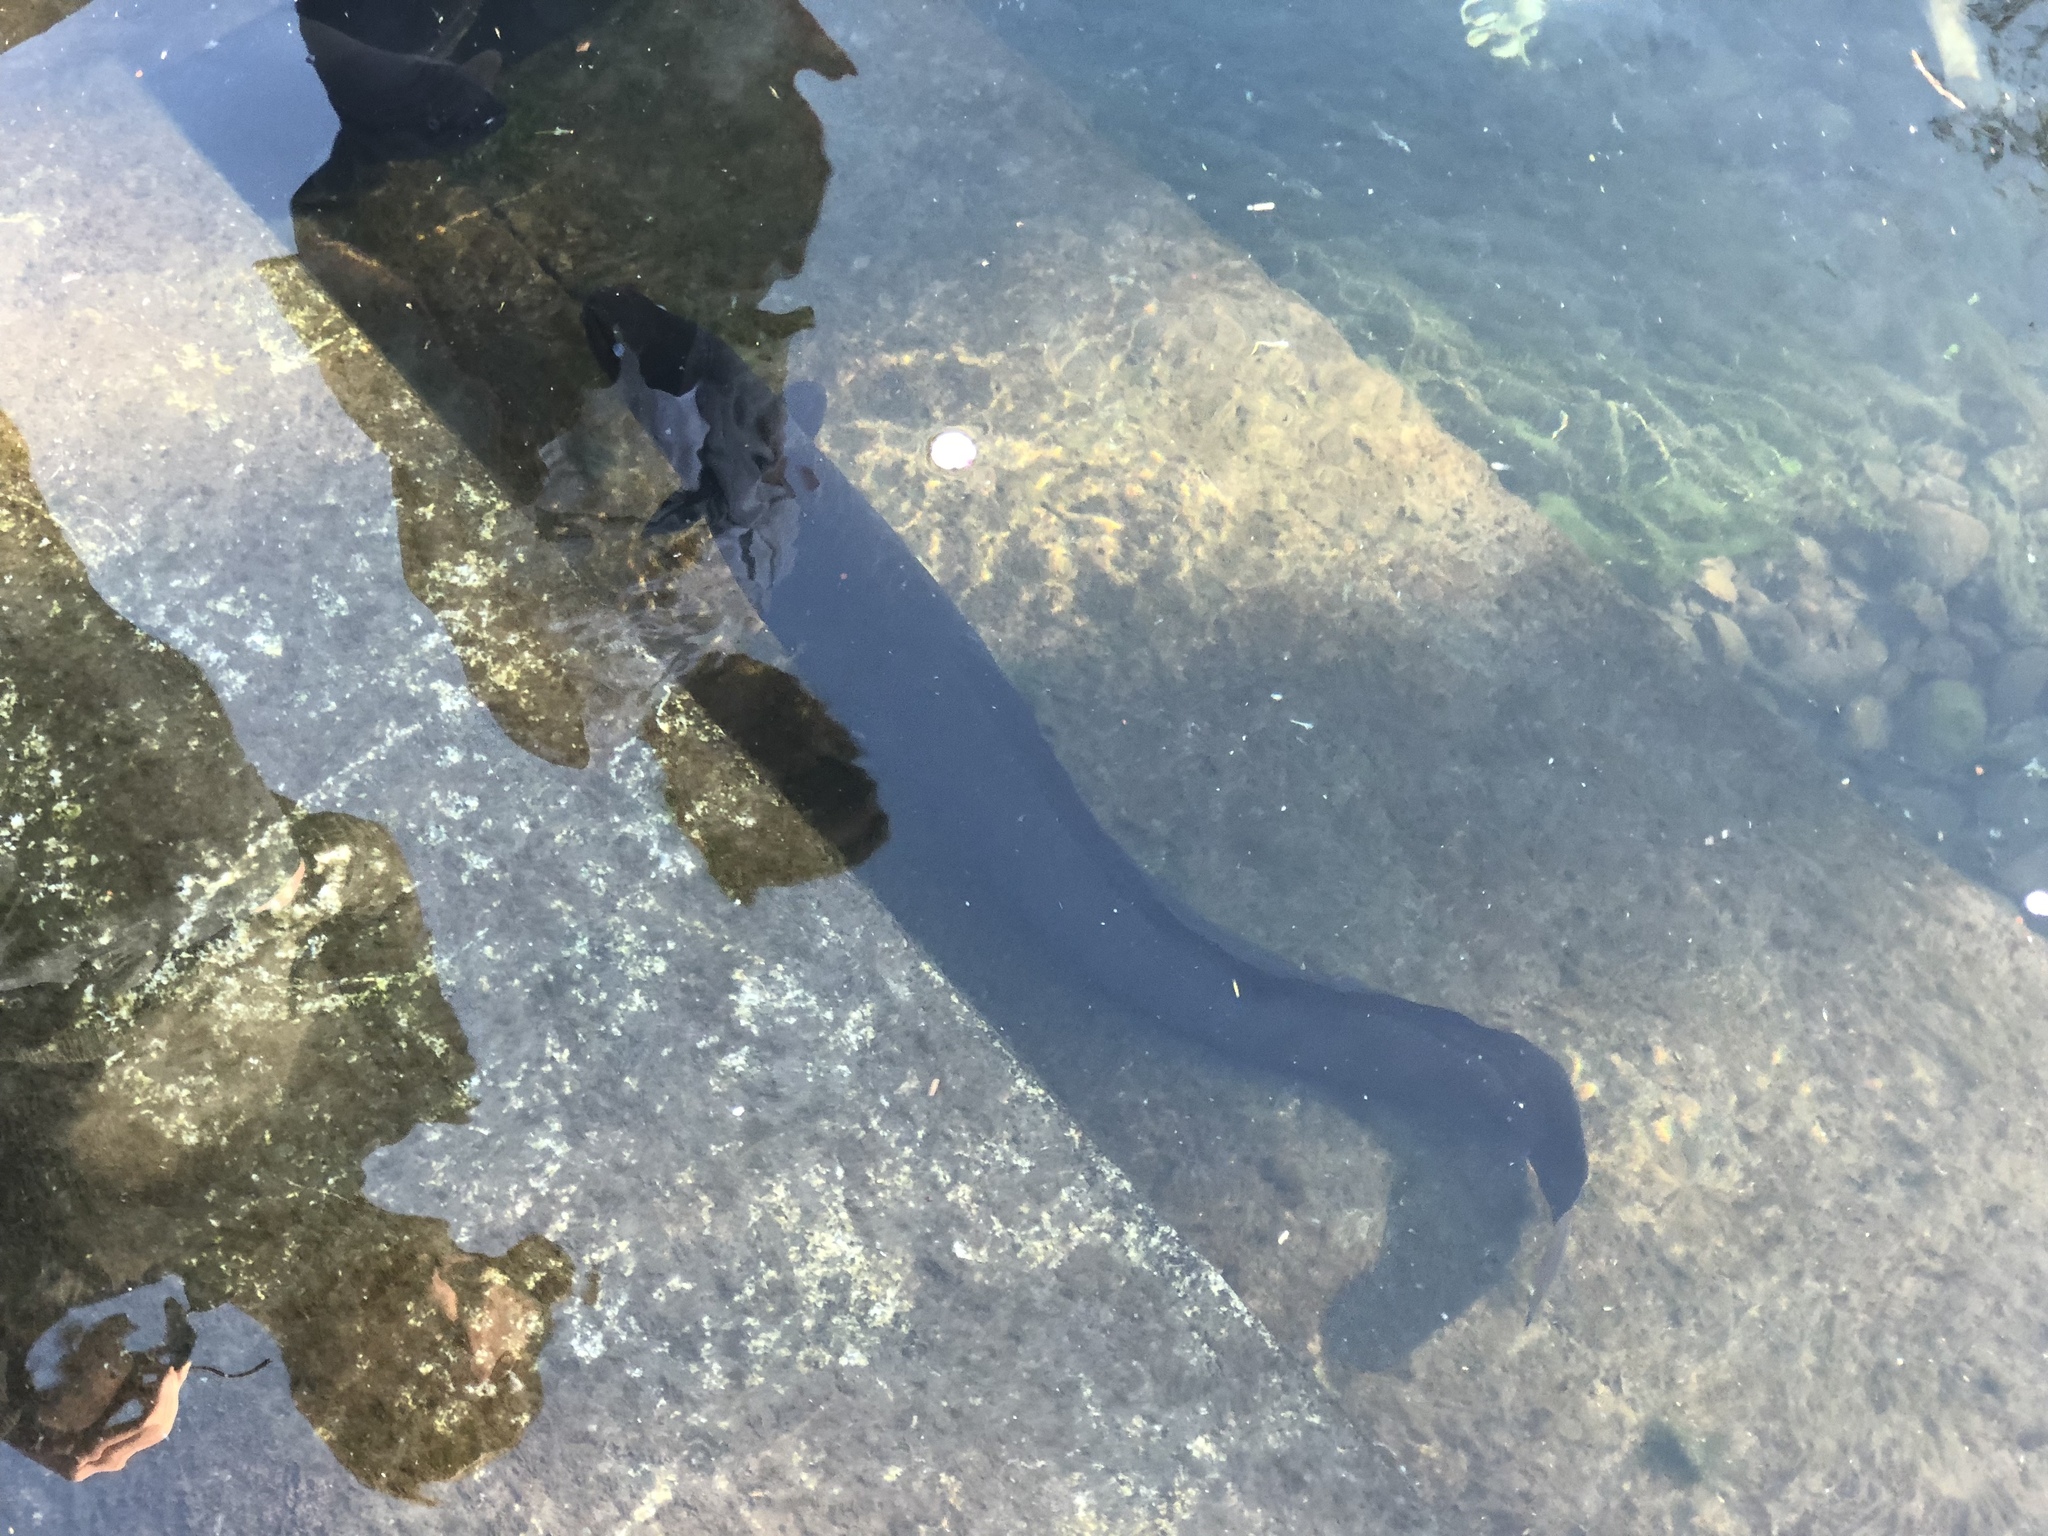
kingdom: Animalia
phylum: Chordata
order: Anguilliformes
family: Anguillidae
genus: Anguilla
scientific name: Anguilla dieffenbachii
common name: New zealand longfin eel
